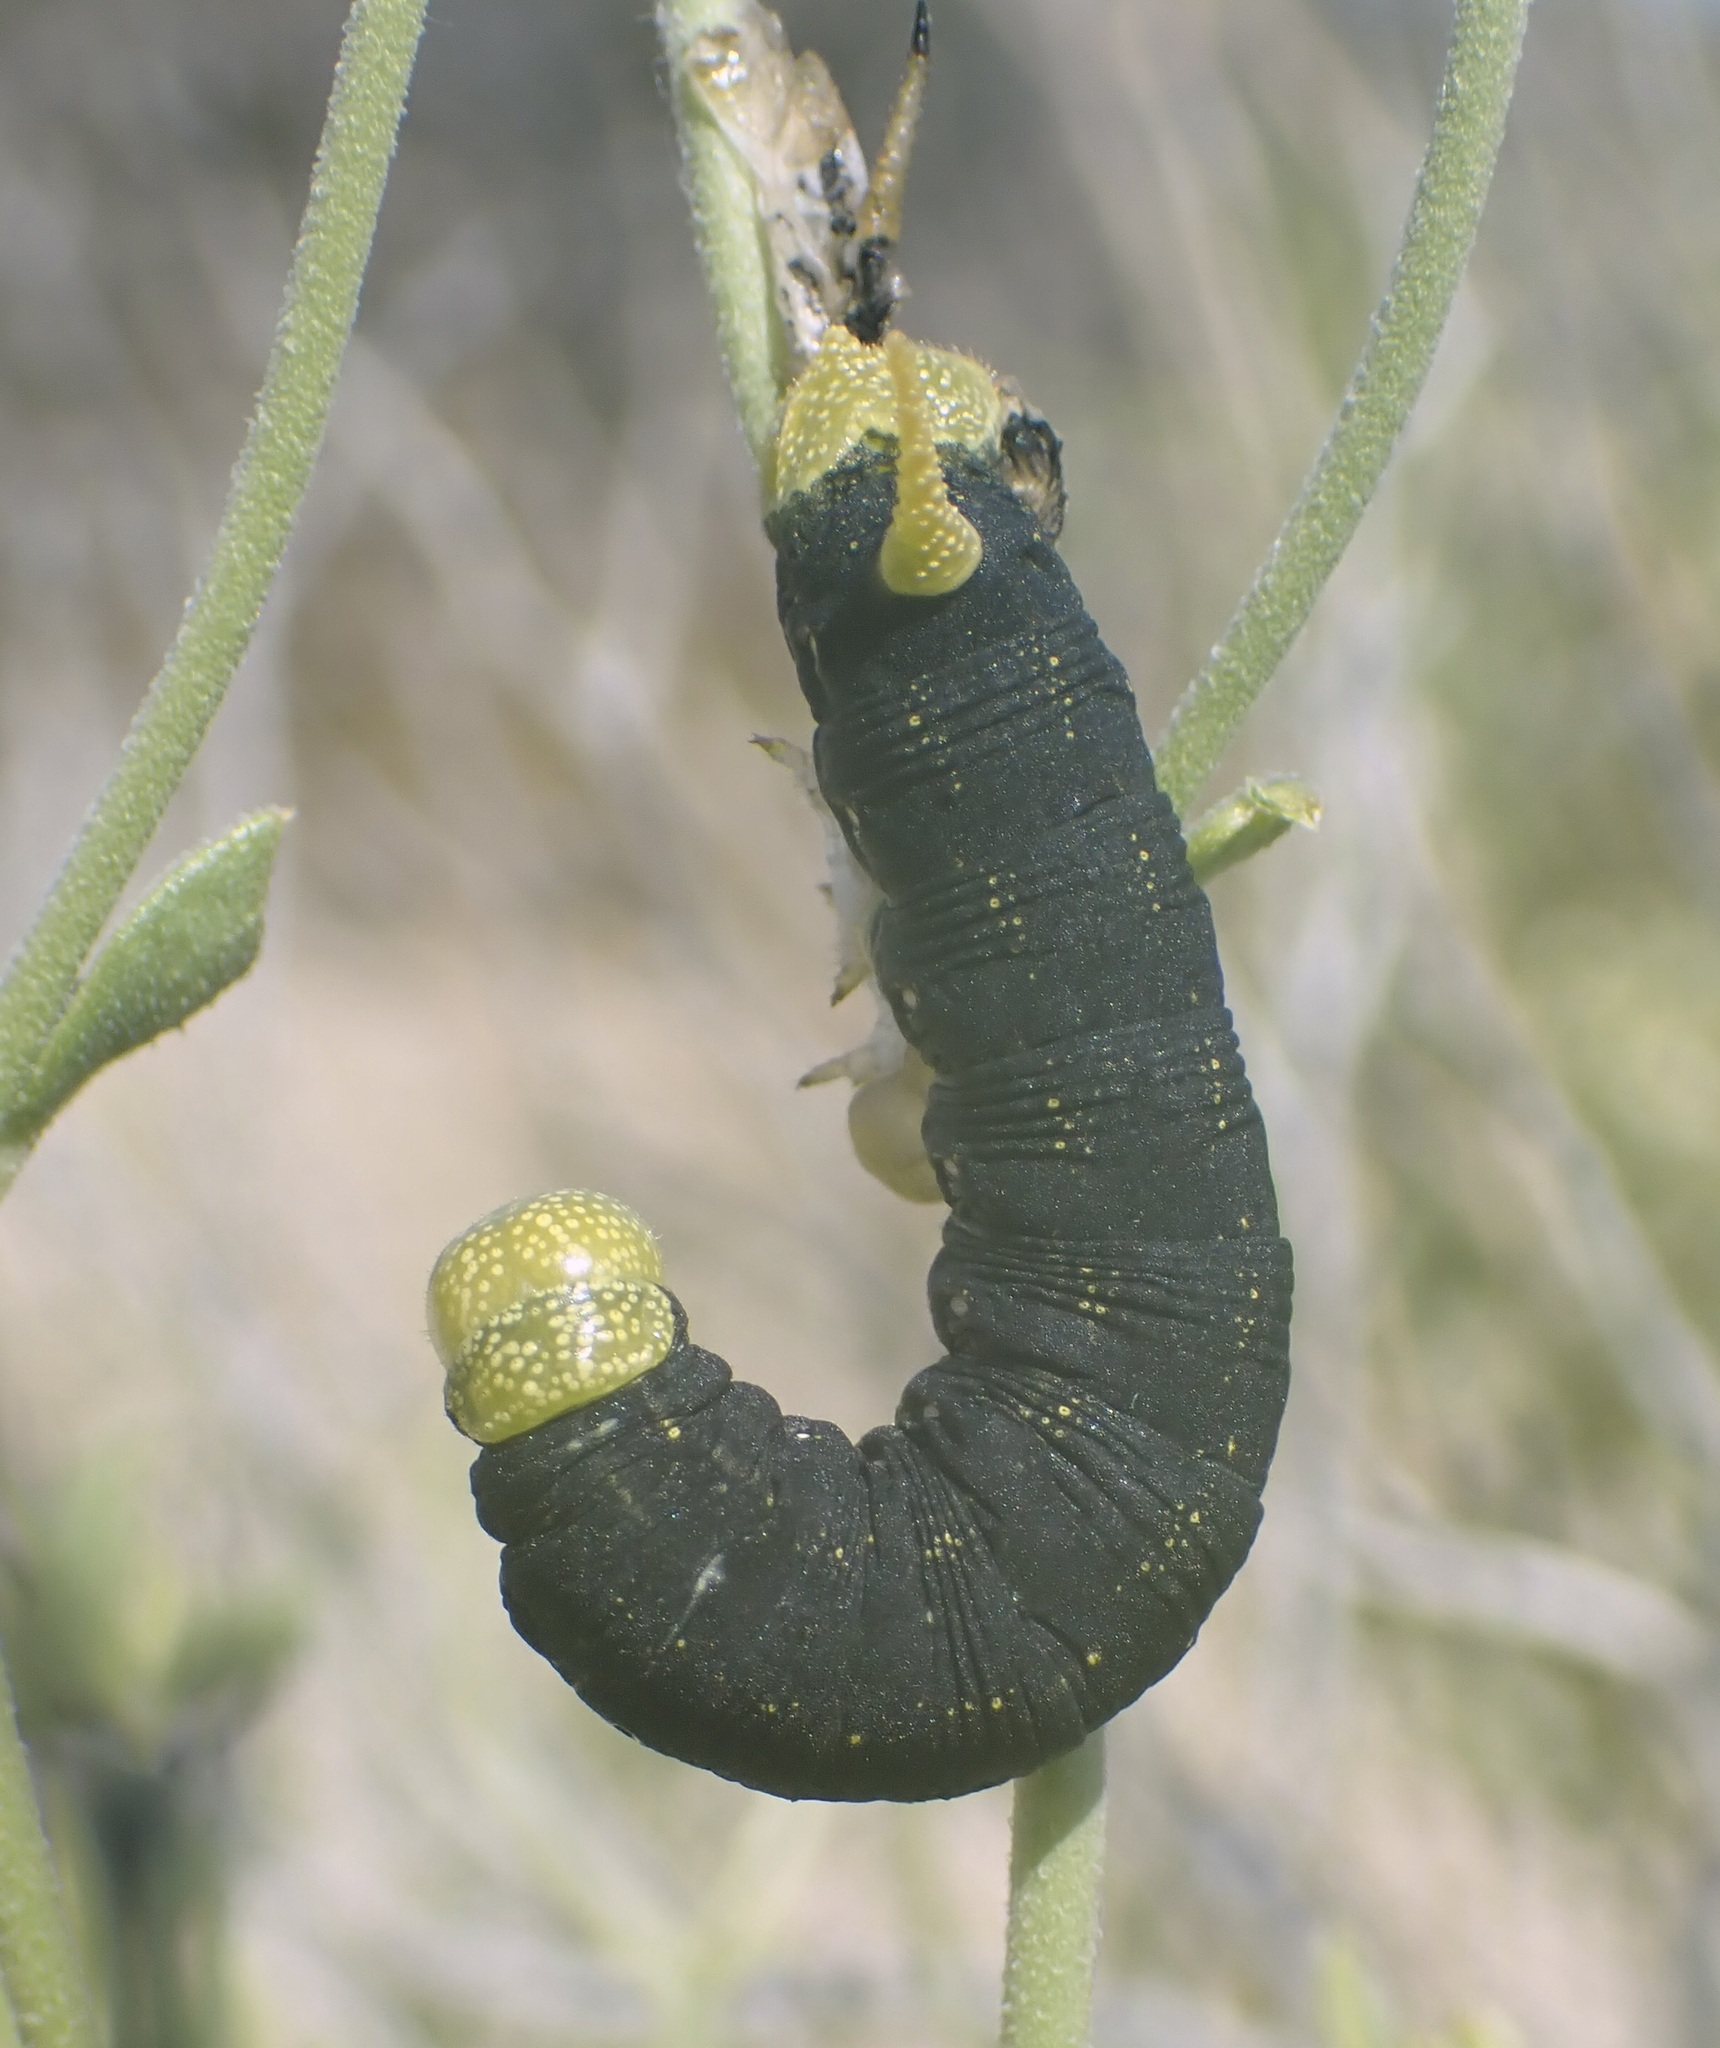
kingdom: Animalia
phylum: Arthropoda
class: Insecta
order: Lepidoptera
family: Sphingidae
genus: Hyles
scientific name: Hyles lineata
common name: White-lined sphinx
